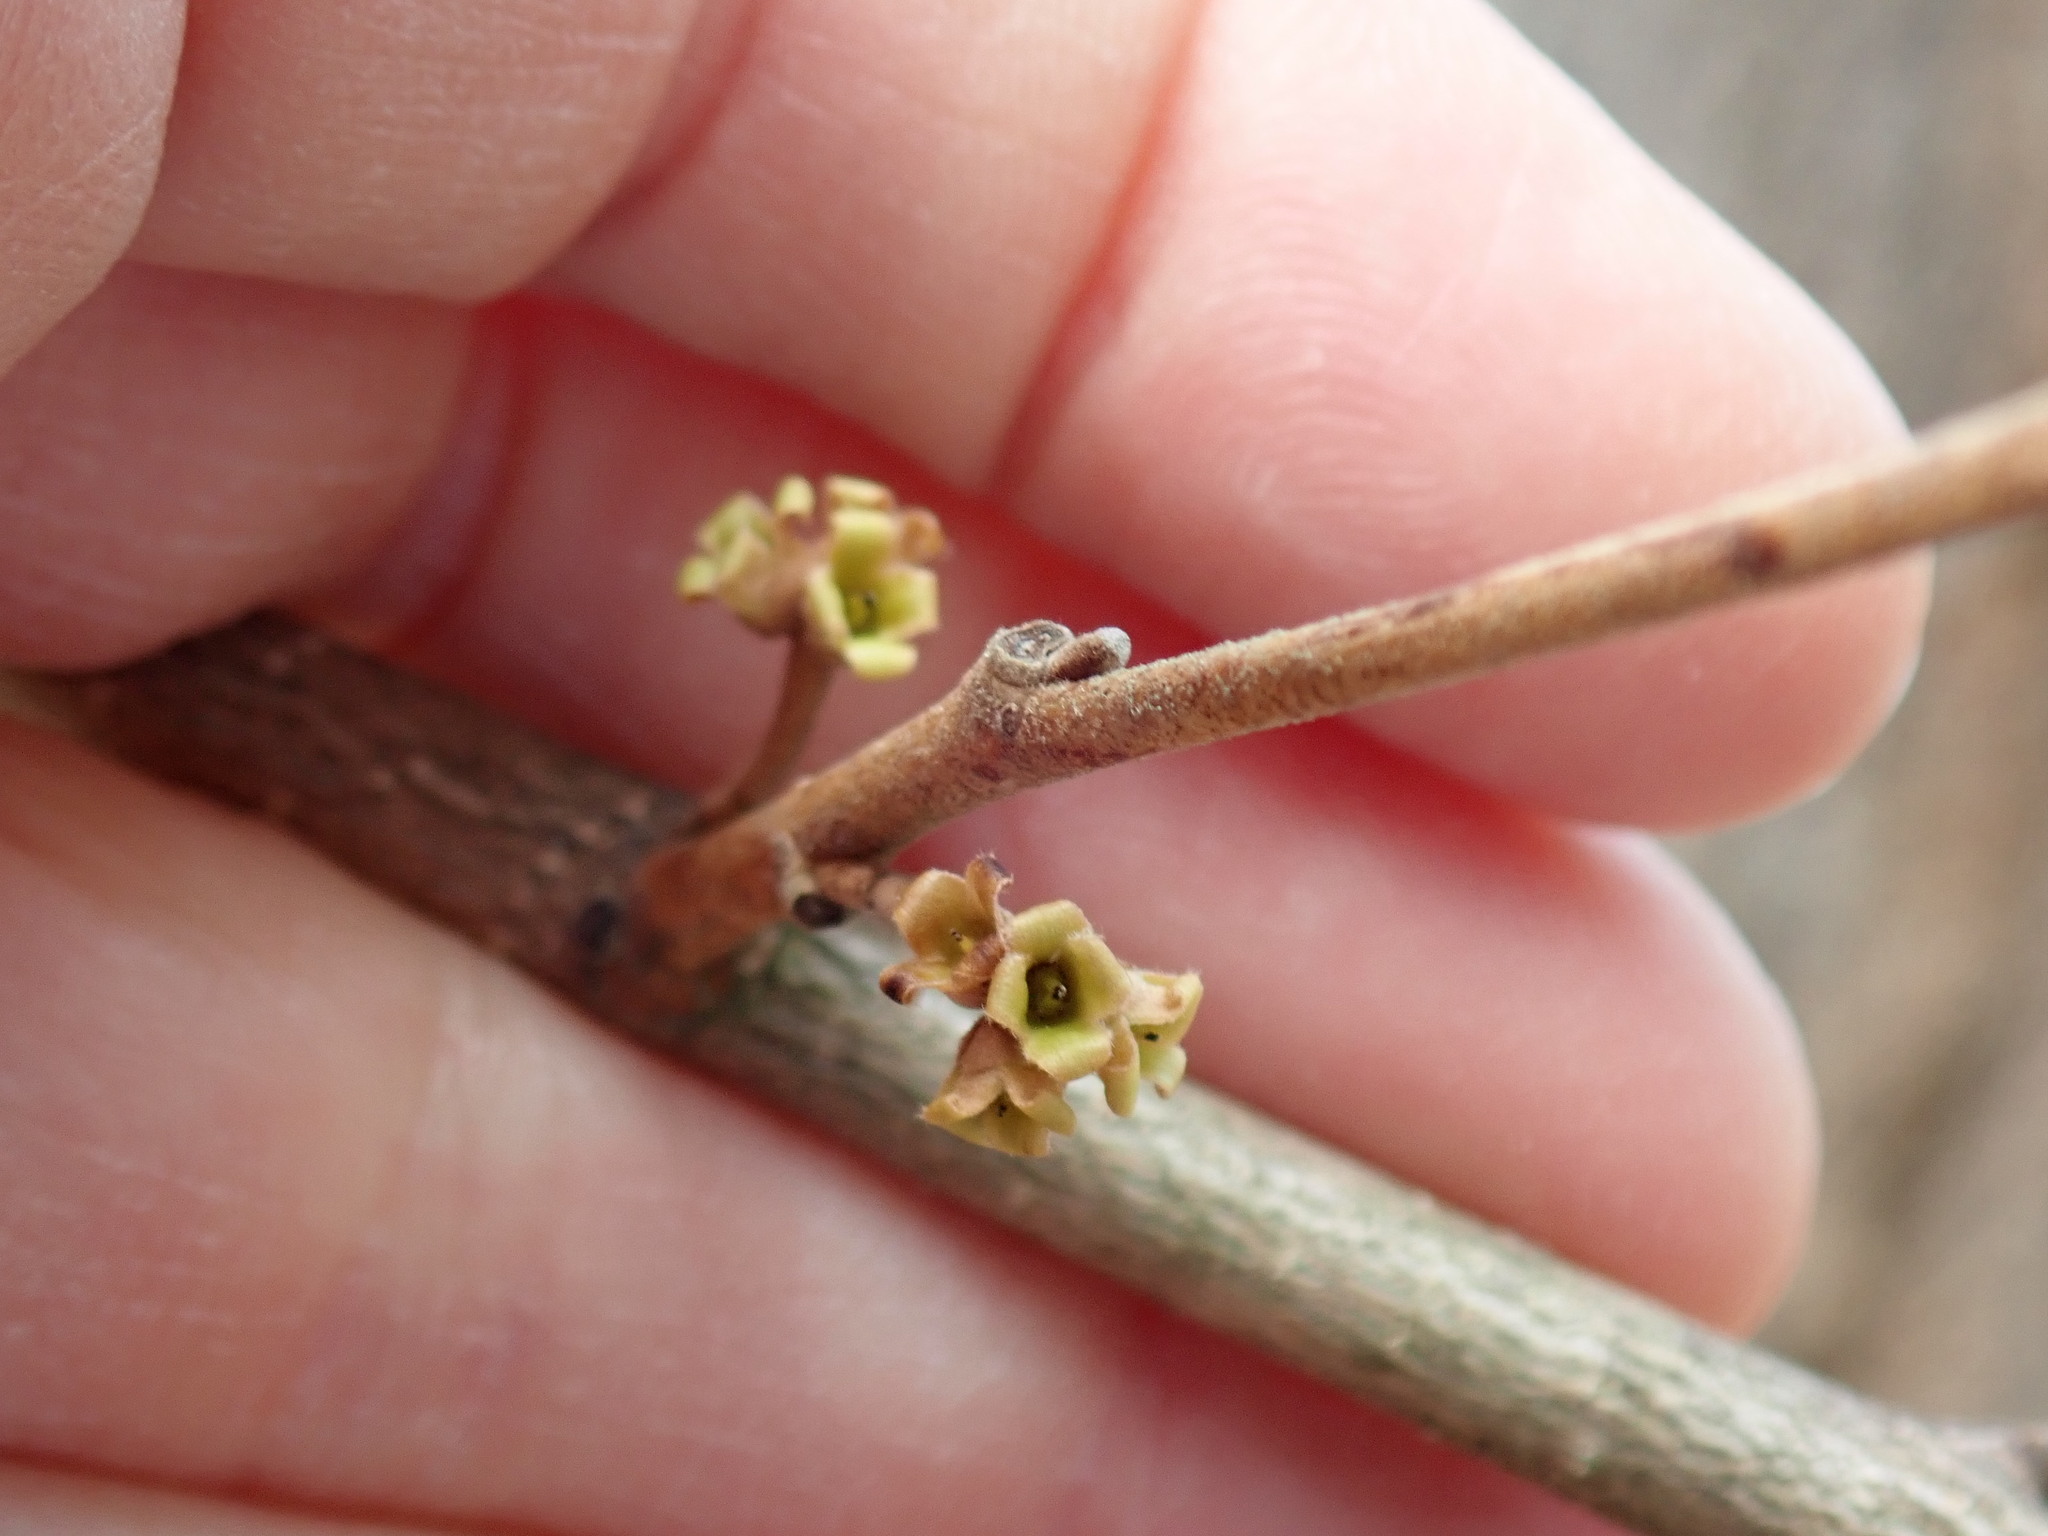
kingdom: Plantae
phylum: Tracheophyta
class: Magnoliopsida
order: Saxifragales
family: Hamamelidaceae
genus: Hamamelis
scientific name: Hamamelis virginiana
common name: Witch-hazel
